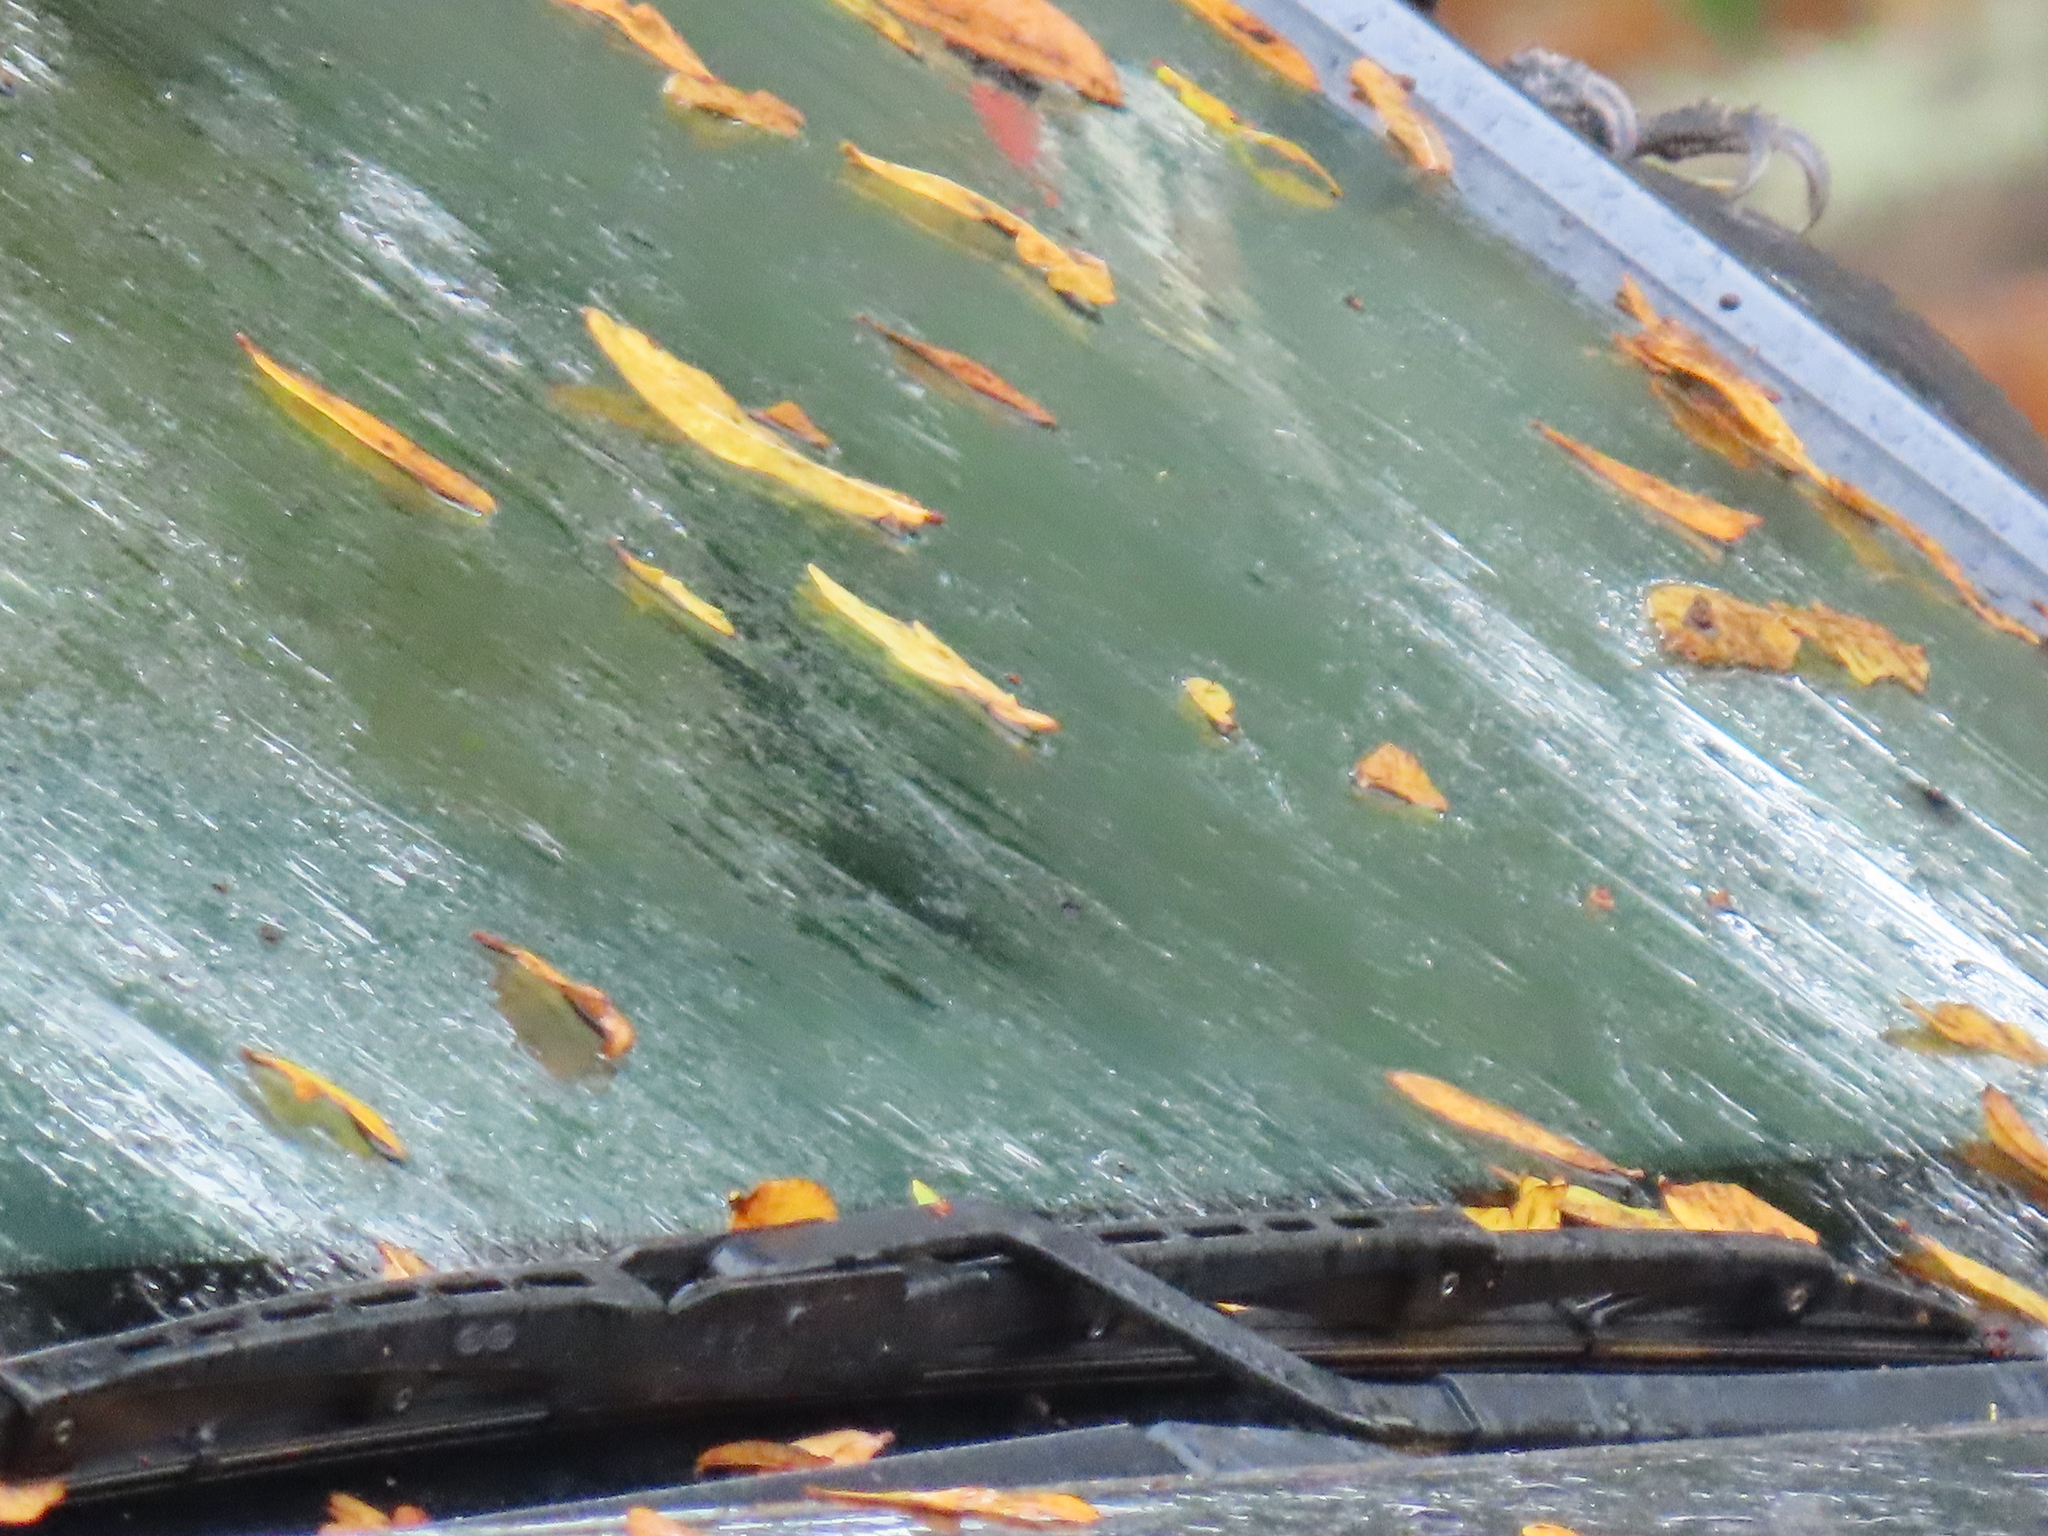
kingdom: Animalia
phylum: Chordata
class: Aves
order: Piciformes
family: Picidae
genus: Dryocopus
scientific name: Dryocopus pileatus
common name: Pileated woodpecker
